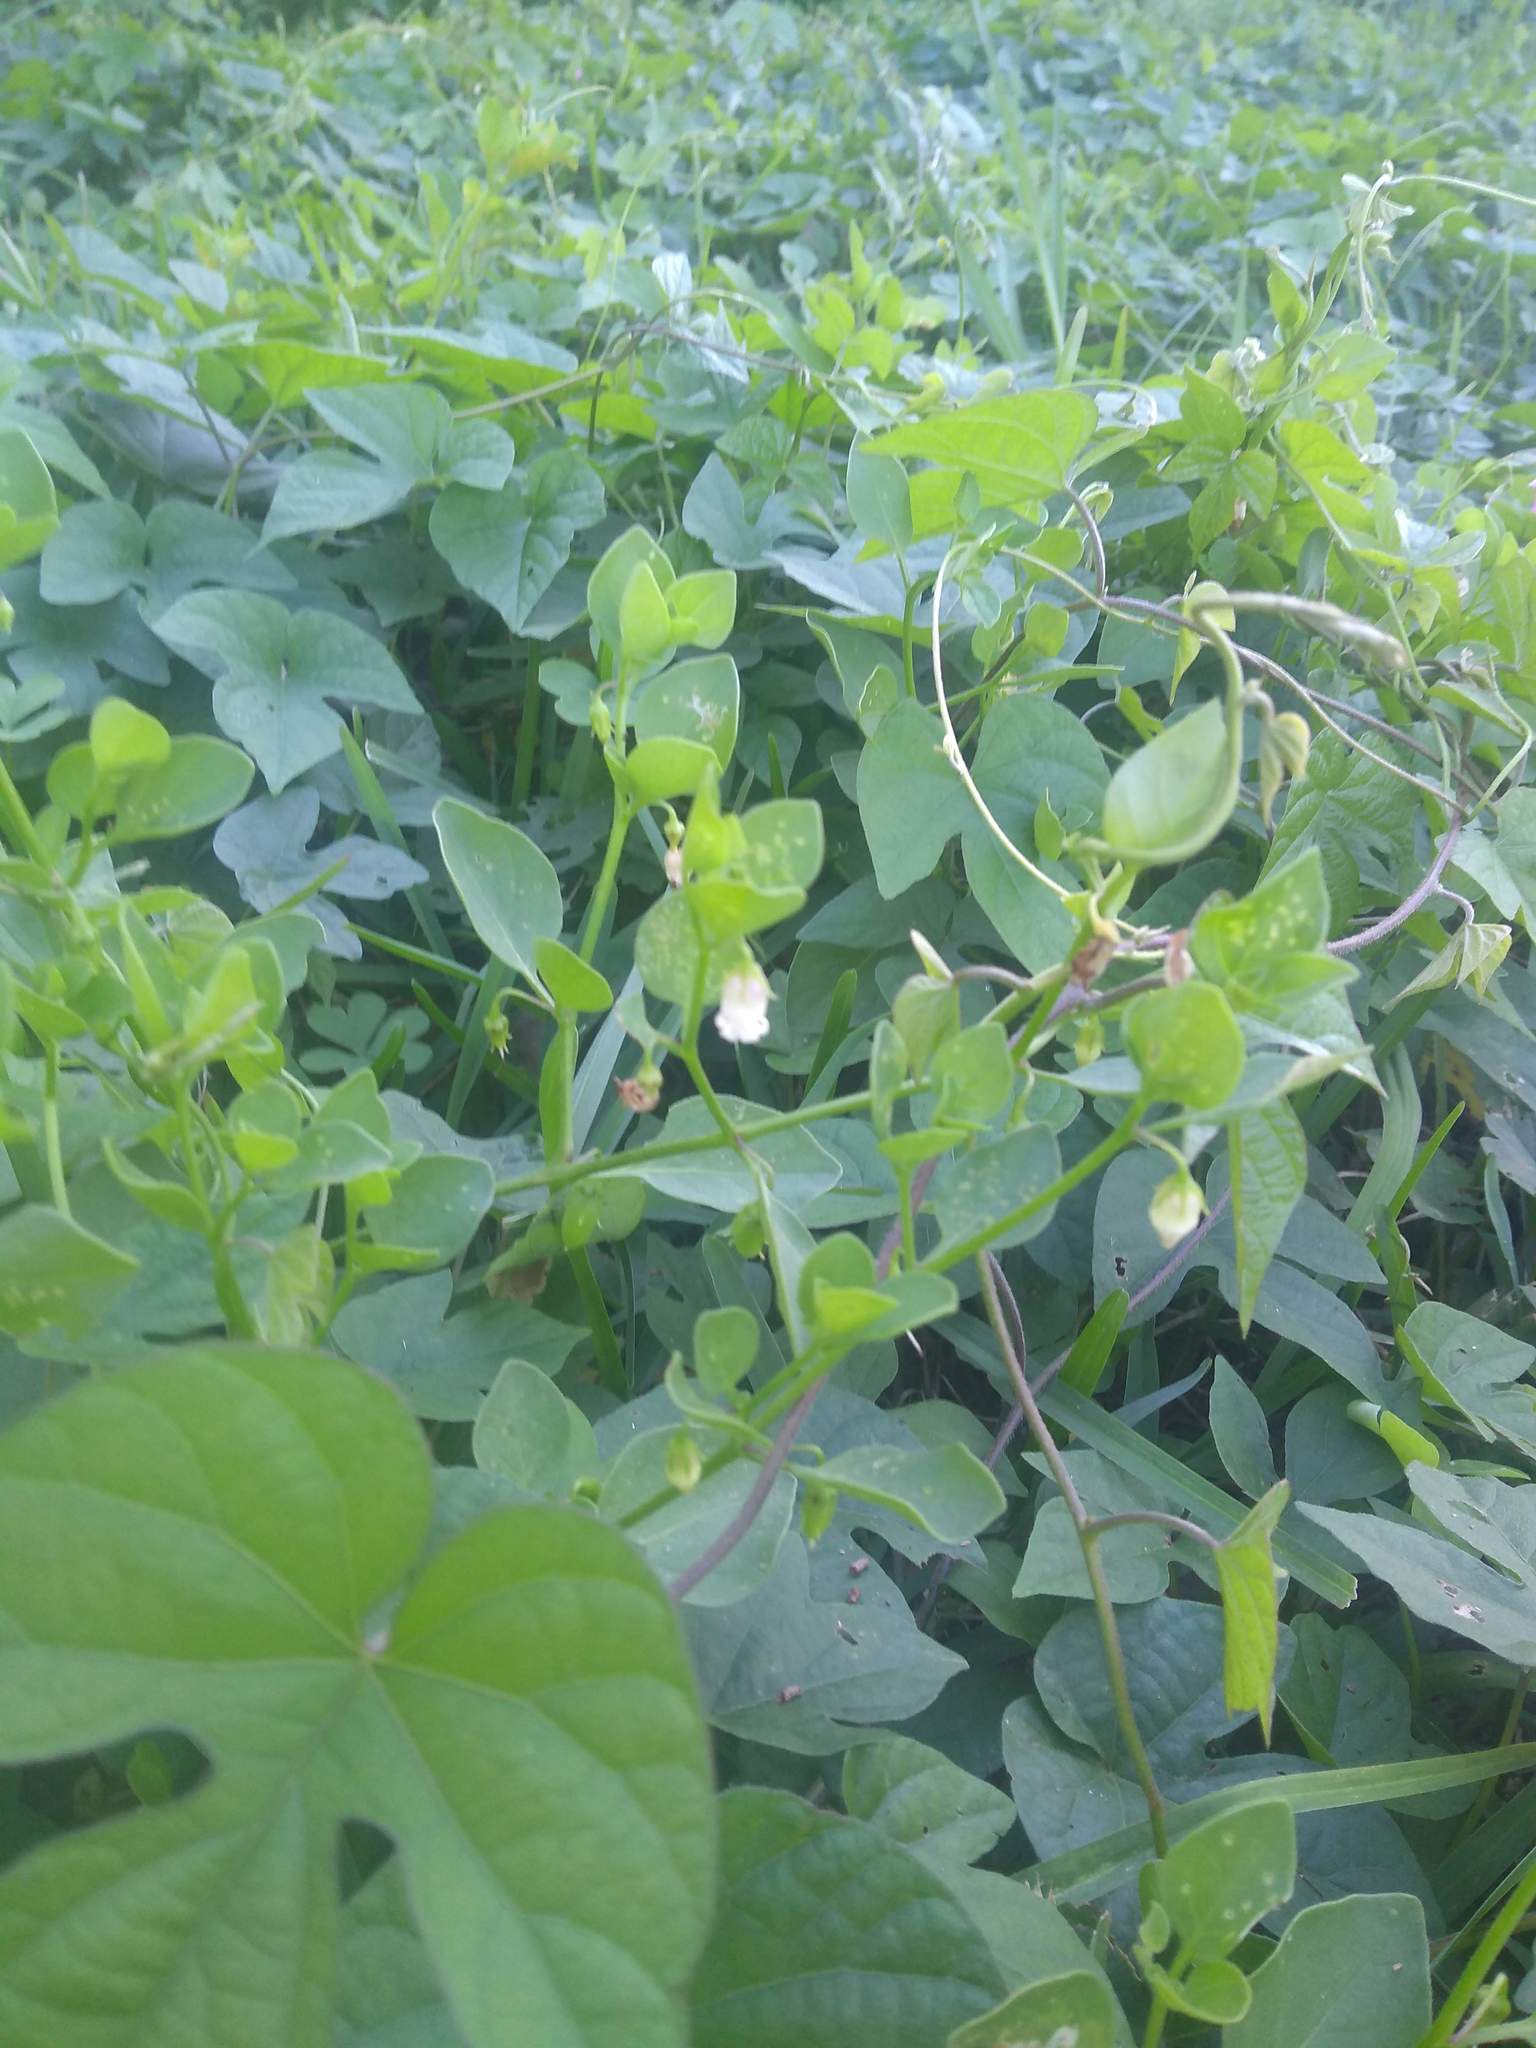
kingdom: Plantae
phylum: Tracheophyta
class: Magnoliopsida
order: Solanales
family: Solanaceae
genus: Salpichroa
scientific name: Salpichroa origanifolia
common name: Lily-of-the-valley-vine
